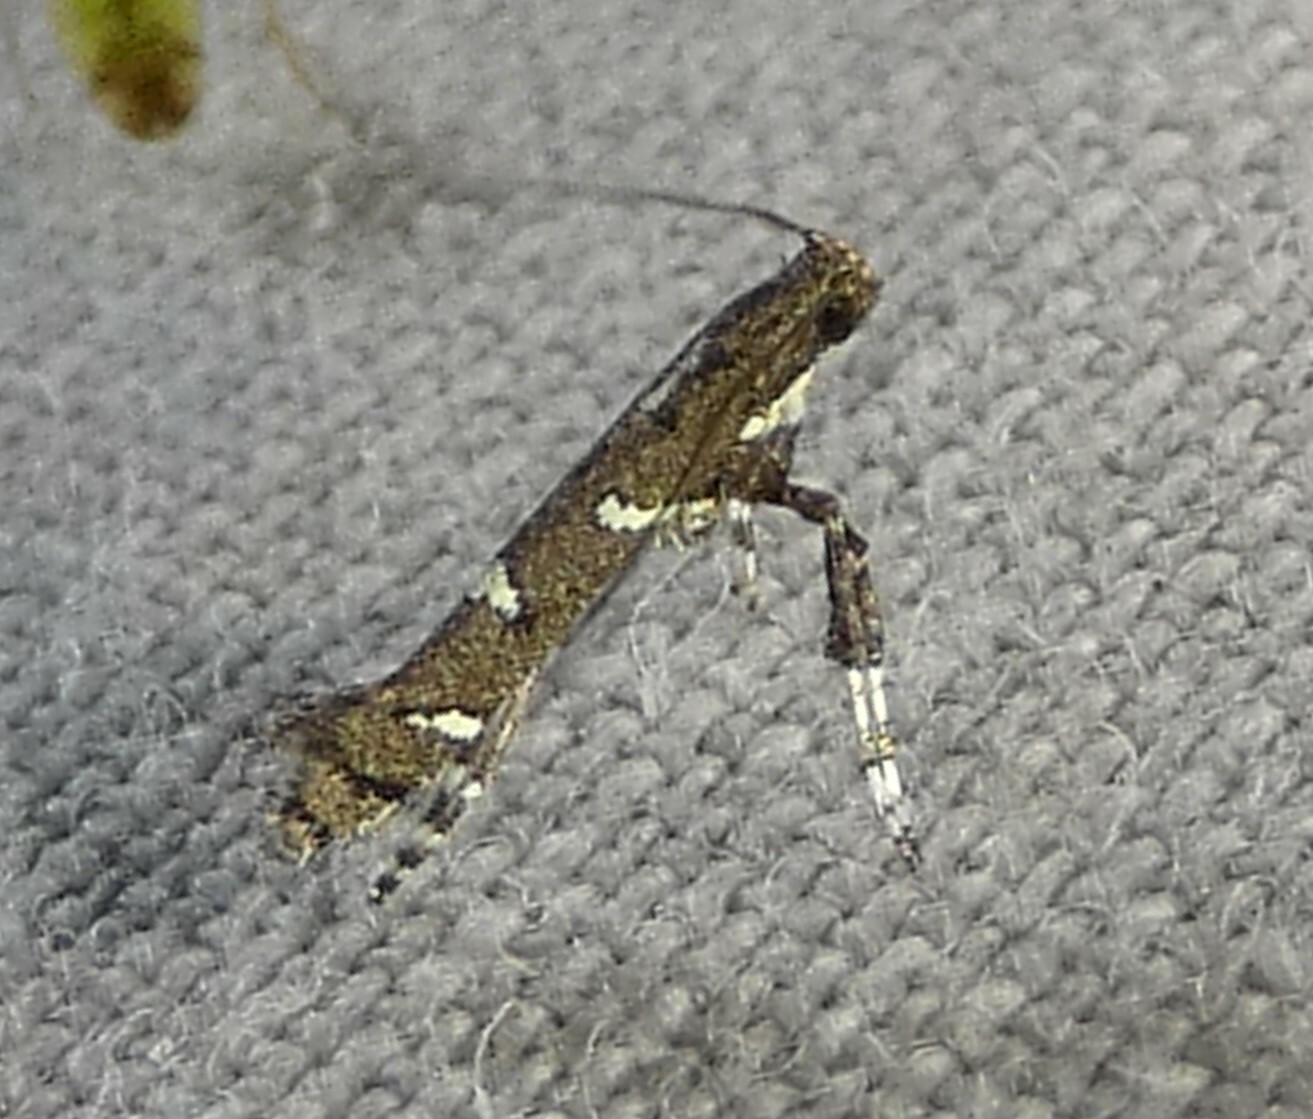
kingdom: Animalia
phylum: Arthropoda
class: Insecta
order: Lepidoptera
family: Gracillariidae
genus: Caloptilia
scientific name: Caloptilia triadicae
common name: Tallow leaf roller
